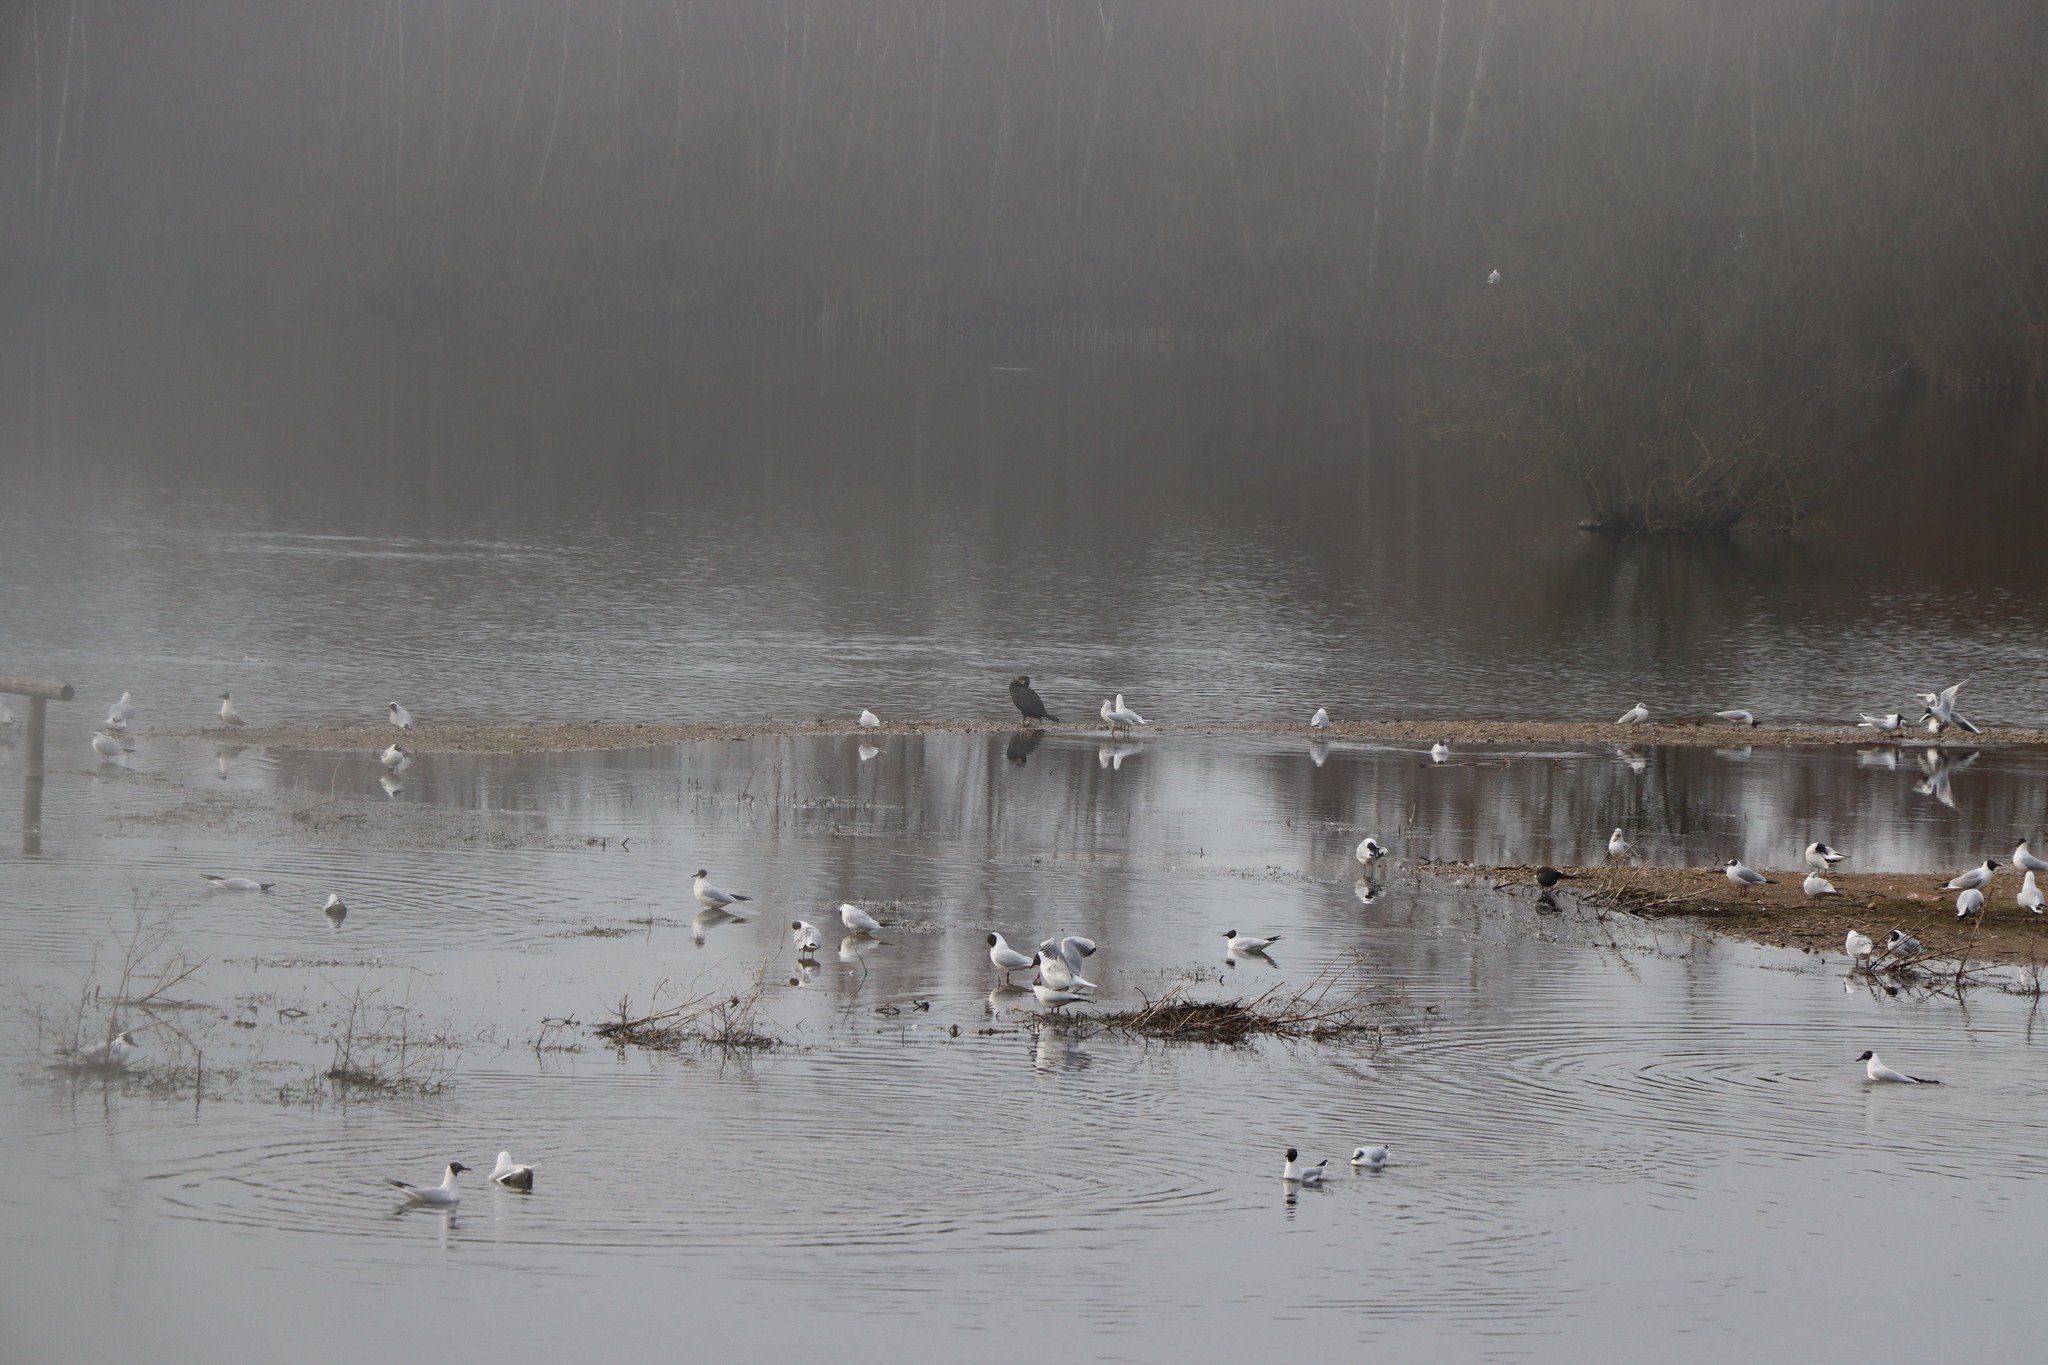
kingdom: Animalia
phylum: Chordata
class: Aves
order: Charadriiformes
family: Laridae
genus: Chroicocephalus
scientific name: Chroicocephalus ridibundus
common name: Black-headed gull
